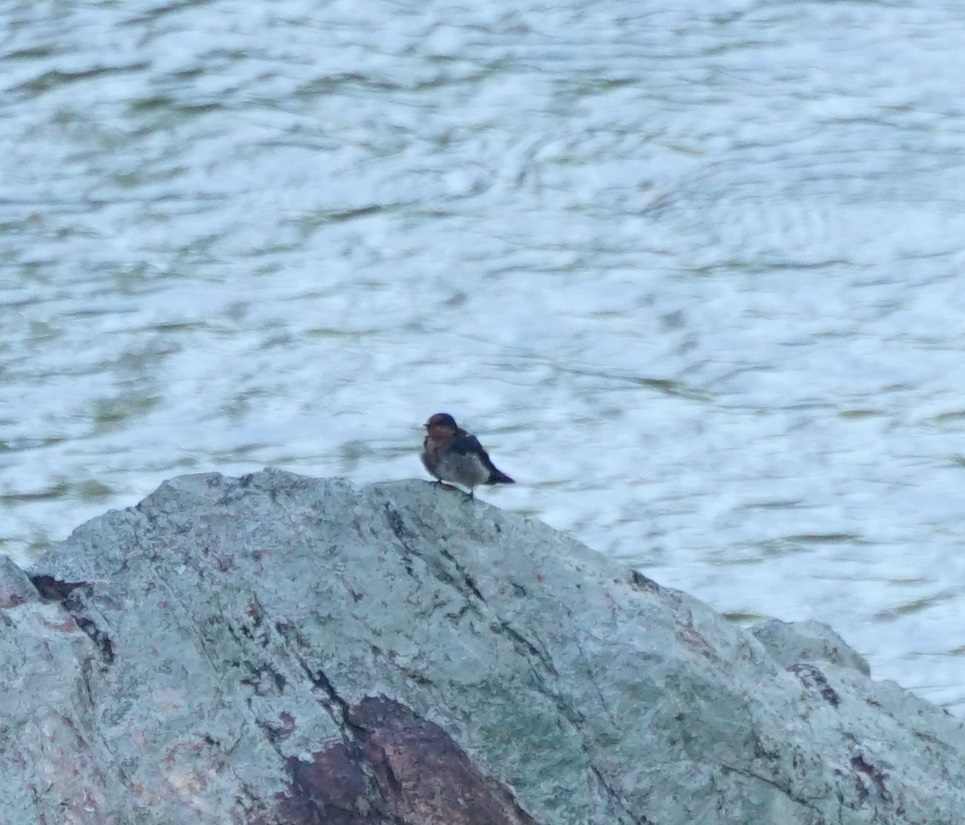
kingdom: Animalia
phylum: Chordata
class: Aves
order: Passeriformes
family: Hirundinidae
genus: Hirundo
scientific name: Hirundo tahitica
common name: Pacific swallow
